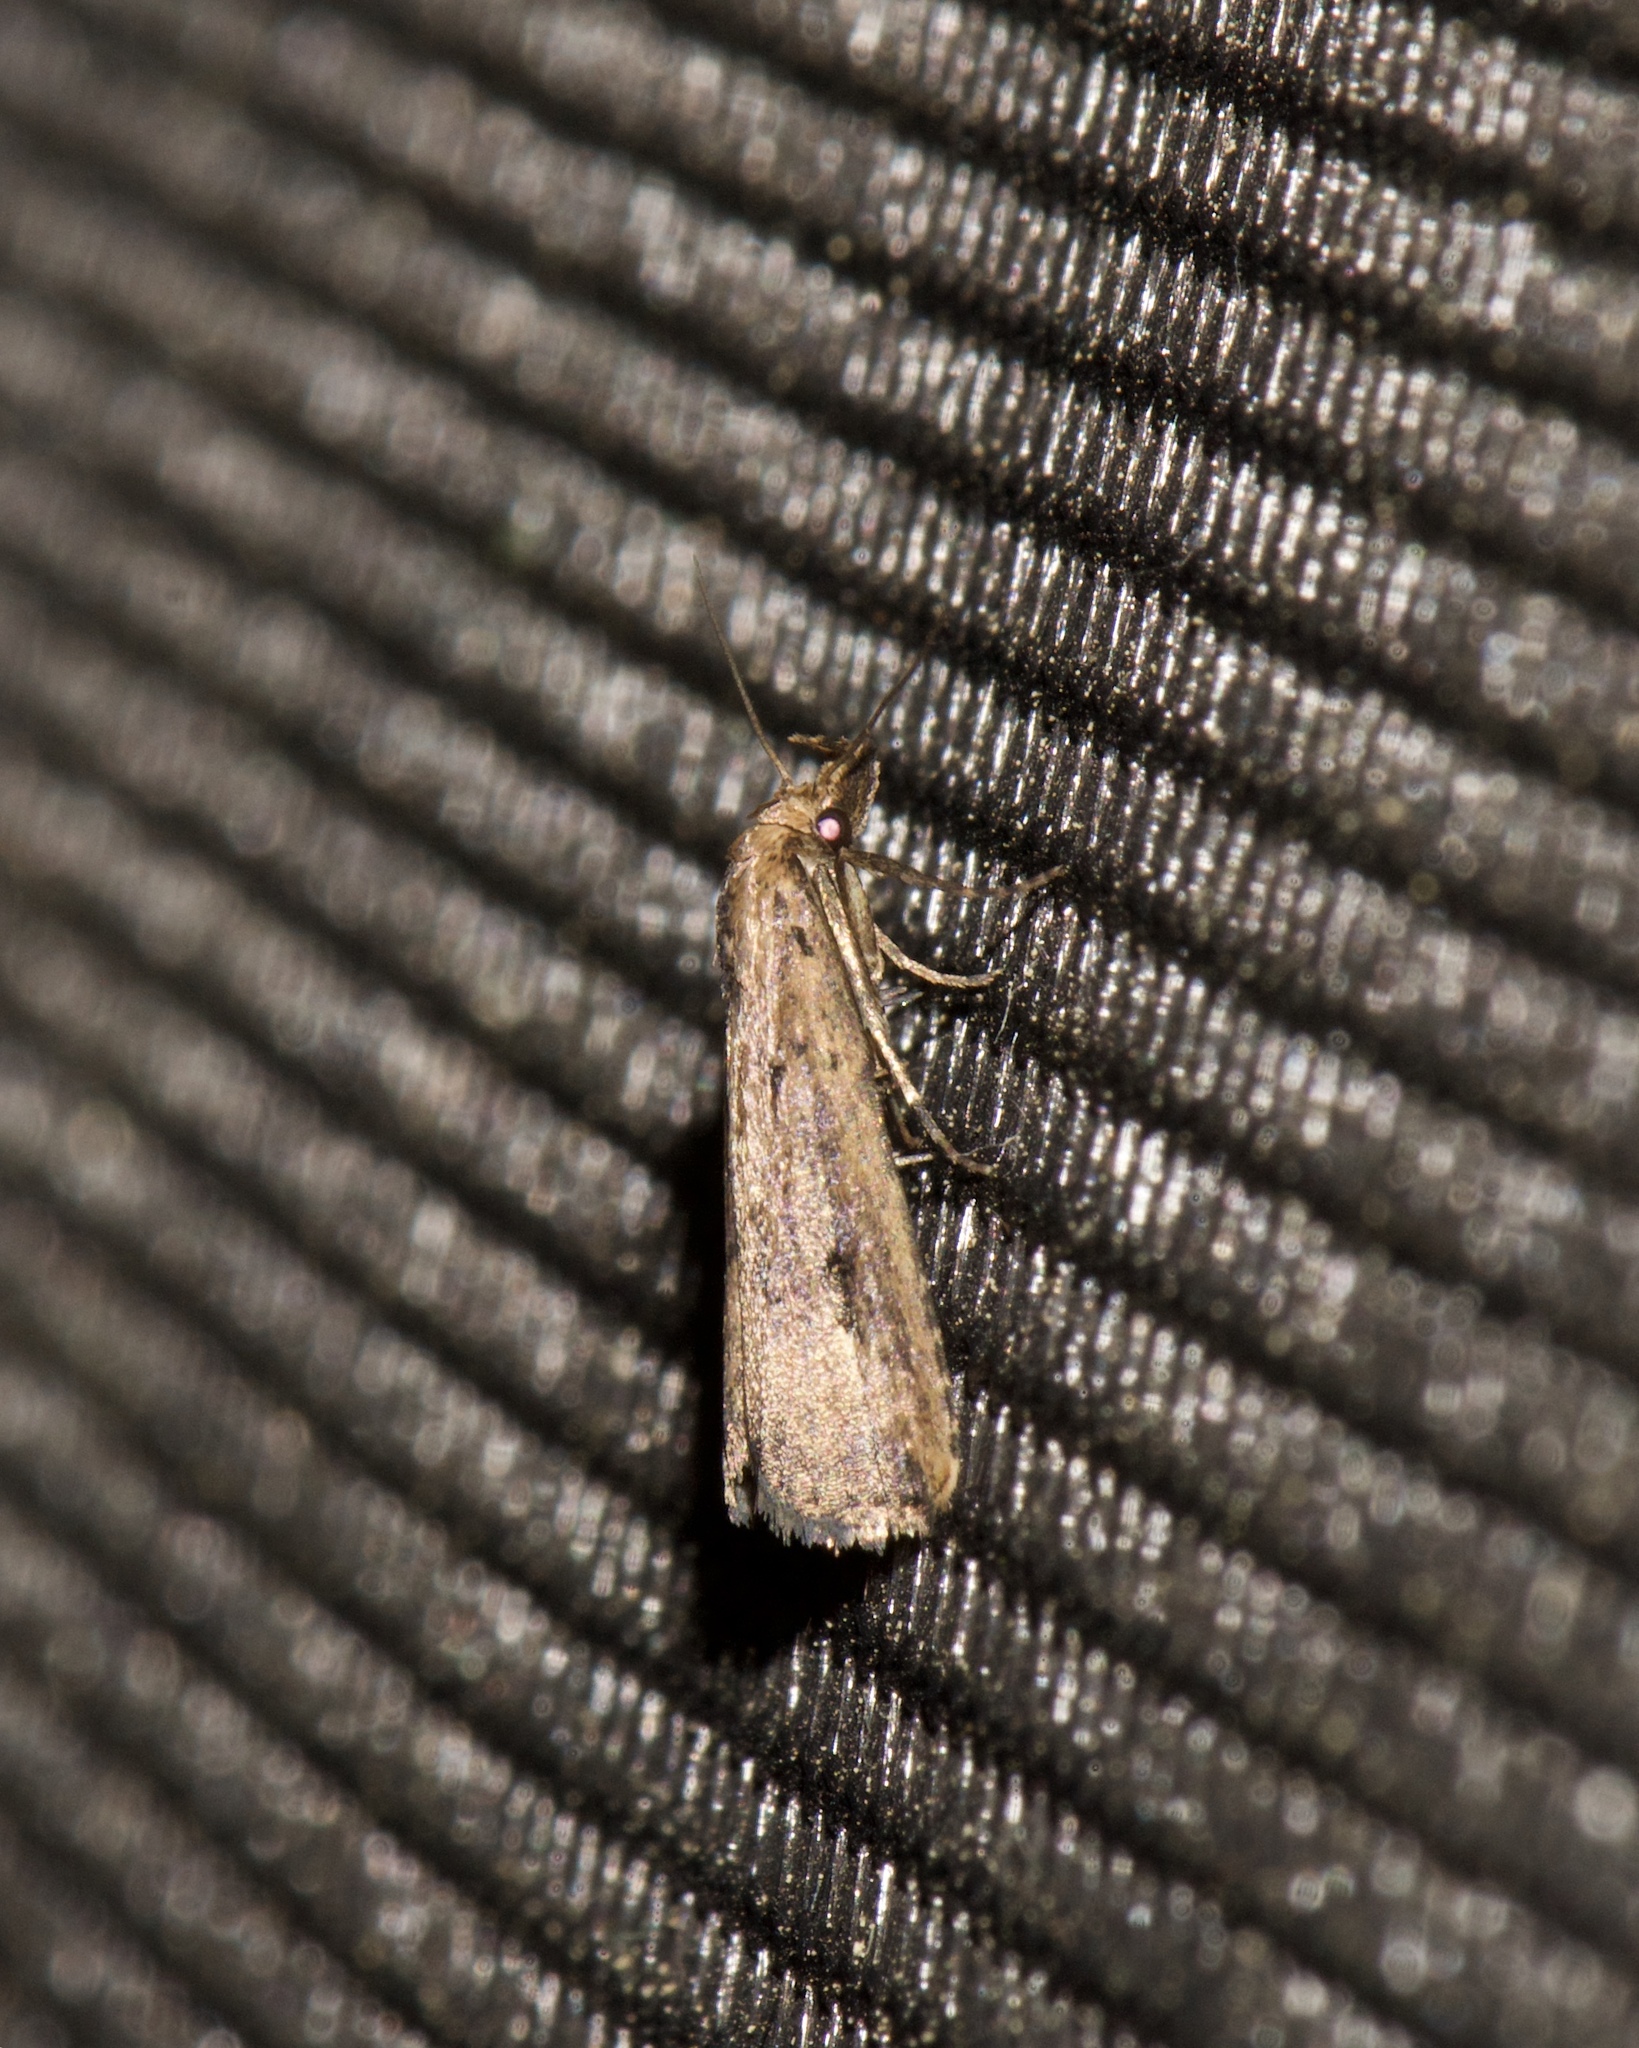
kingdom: Animalia
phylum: Arthropoda
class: Insecta
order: Lepidoptera
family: Erebidae
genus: Schrankia
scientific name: Schrankia
